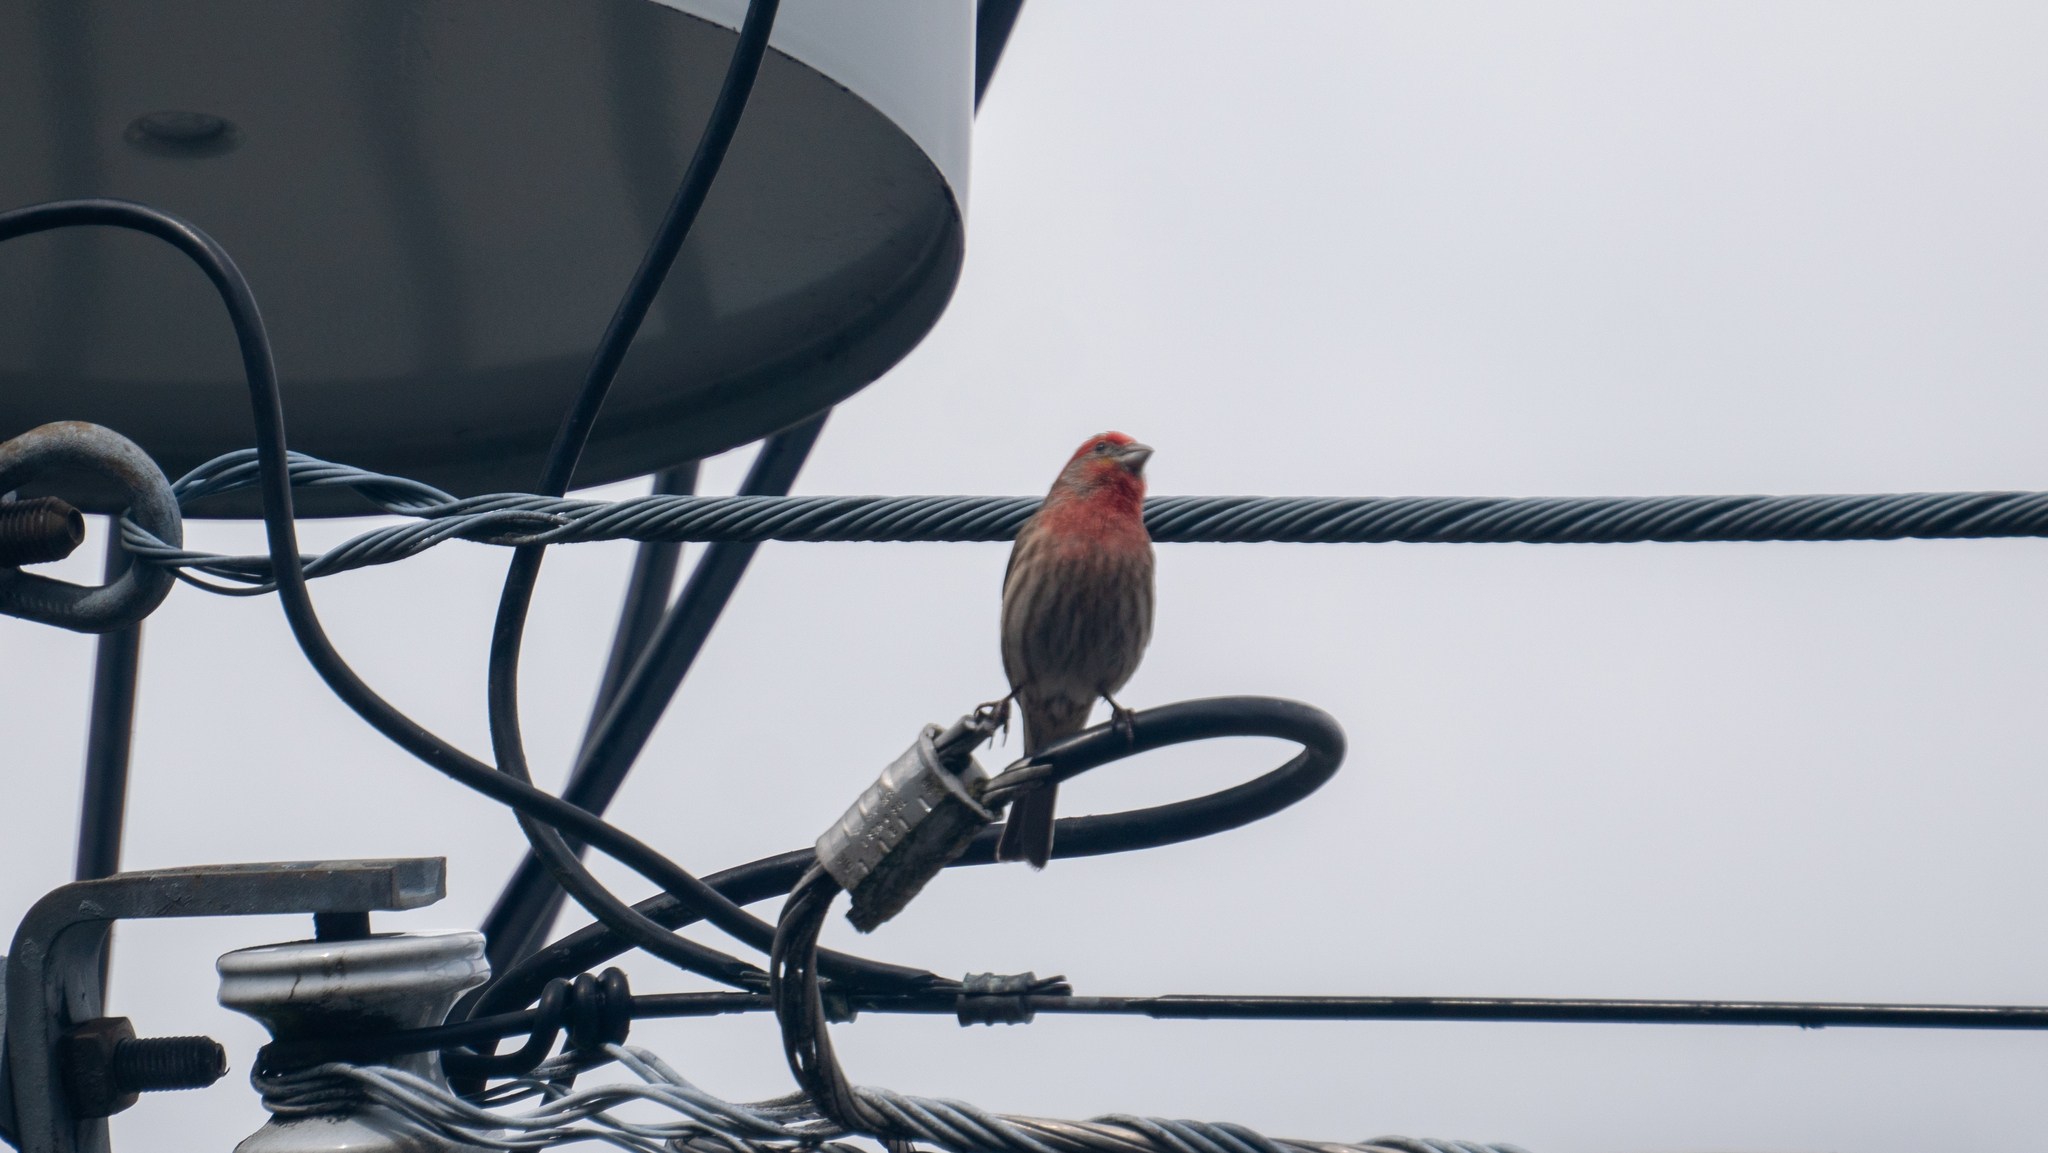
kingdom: Animalia
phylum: Chordata
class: Aves
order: Passeriformes
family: Fringillidae
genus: Haemorhous
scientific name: Haemorhous mexicanus
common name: House finch
